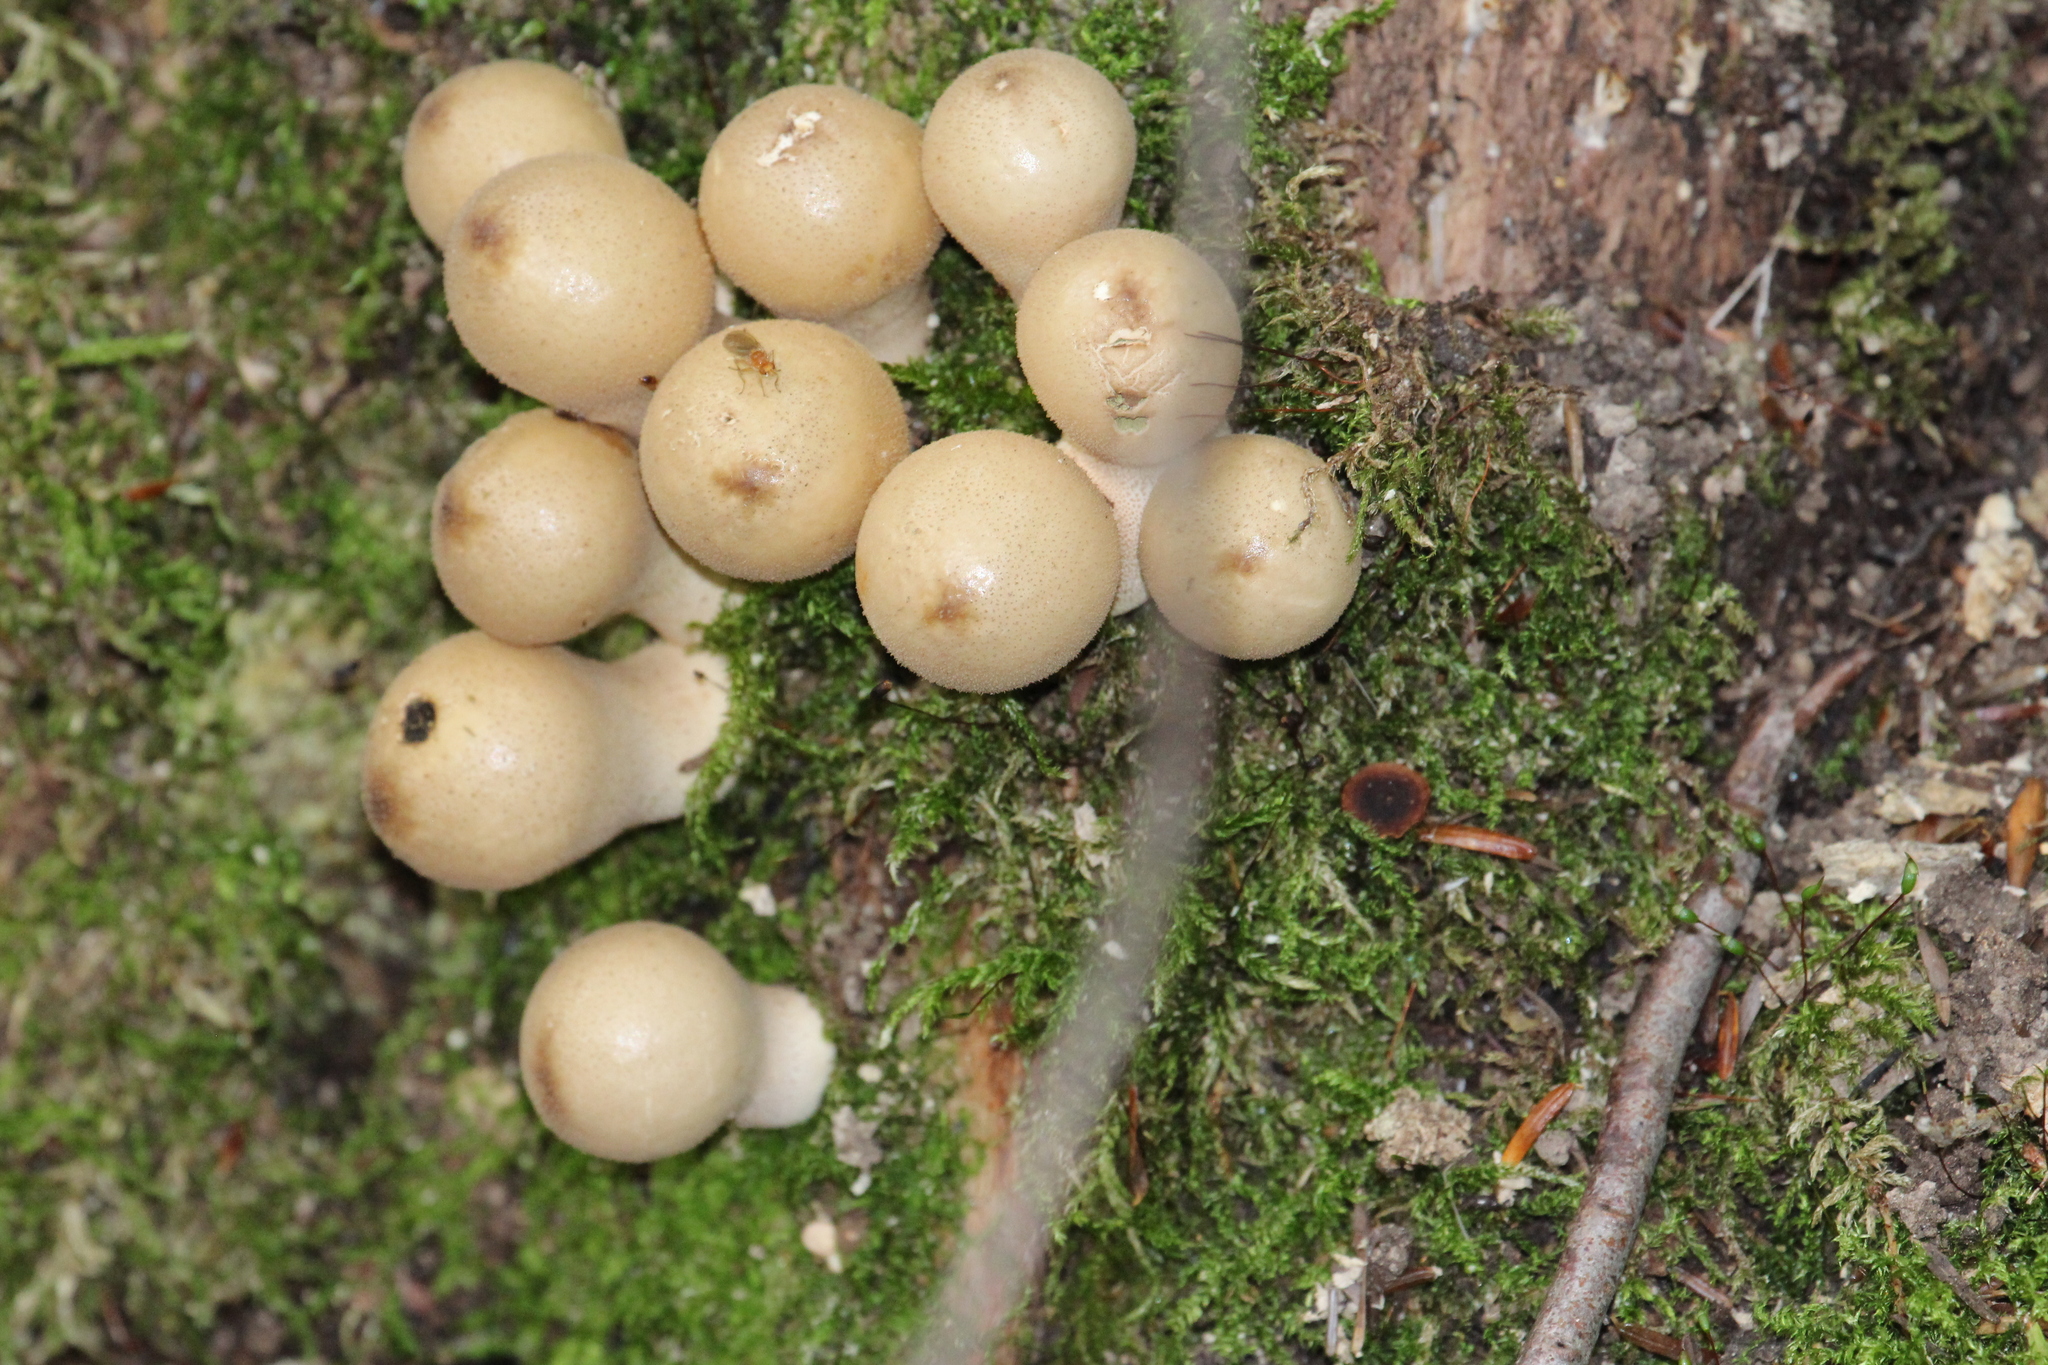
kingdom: Fungi
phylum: Basidiomycota
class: Agaricomycetes
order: Agaricales
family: Lycoperdaceae
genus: Apioperdon
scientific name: Apioperdon pyriforme
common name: Pear-shaped puffball
